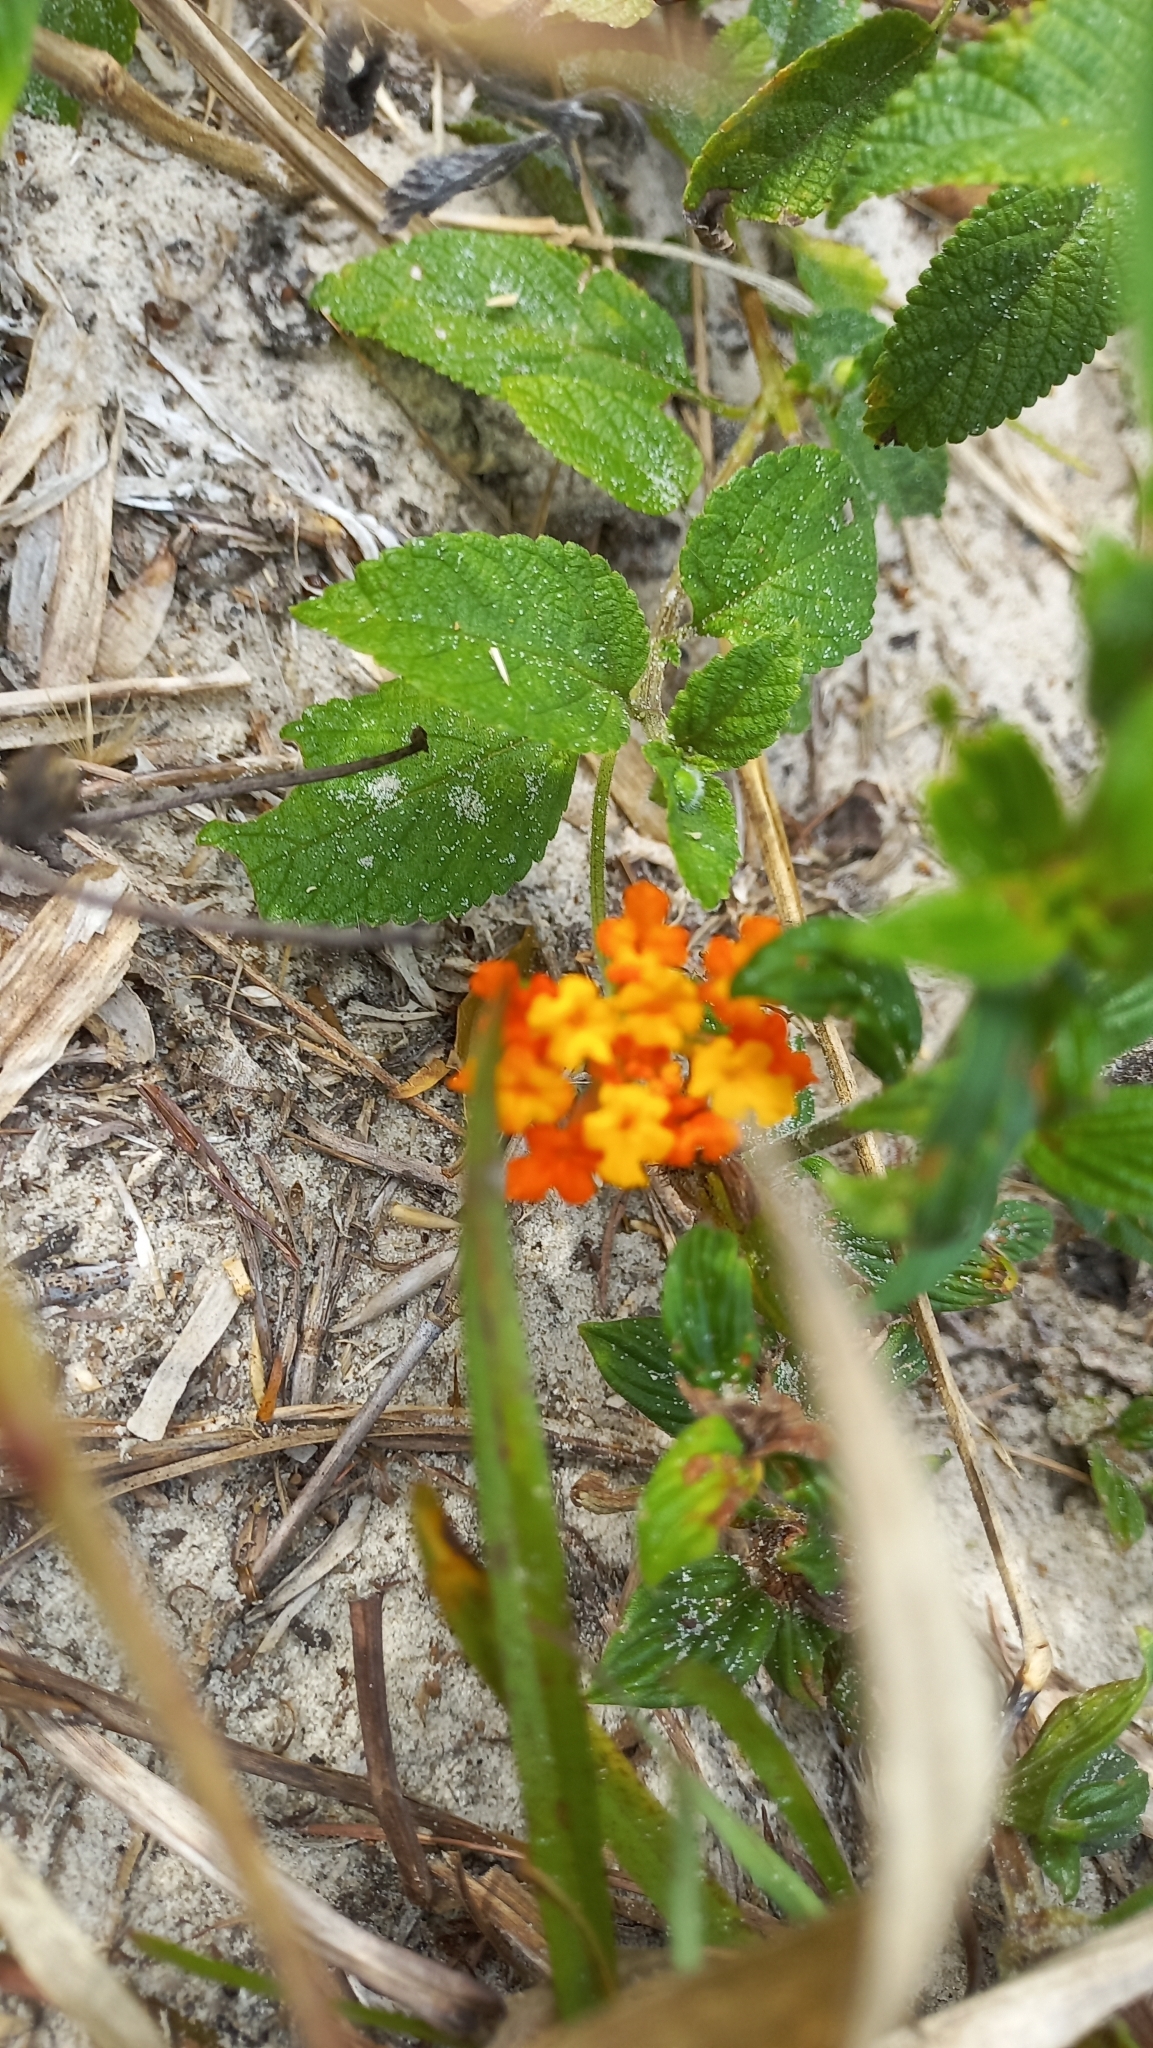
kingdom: Plantae
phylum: Tracheophyta
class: Magnoliopsida
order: Lamiales
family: Verbenaceae
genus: Lantana
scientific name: Lantana camara
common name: Lantana
